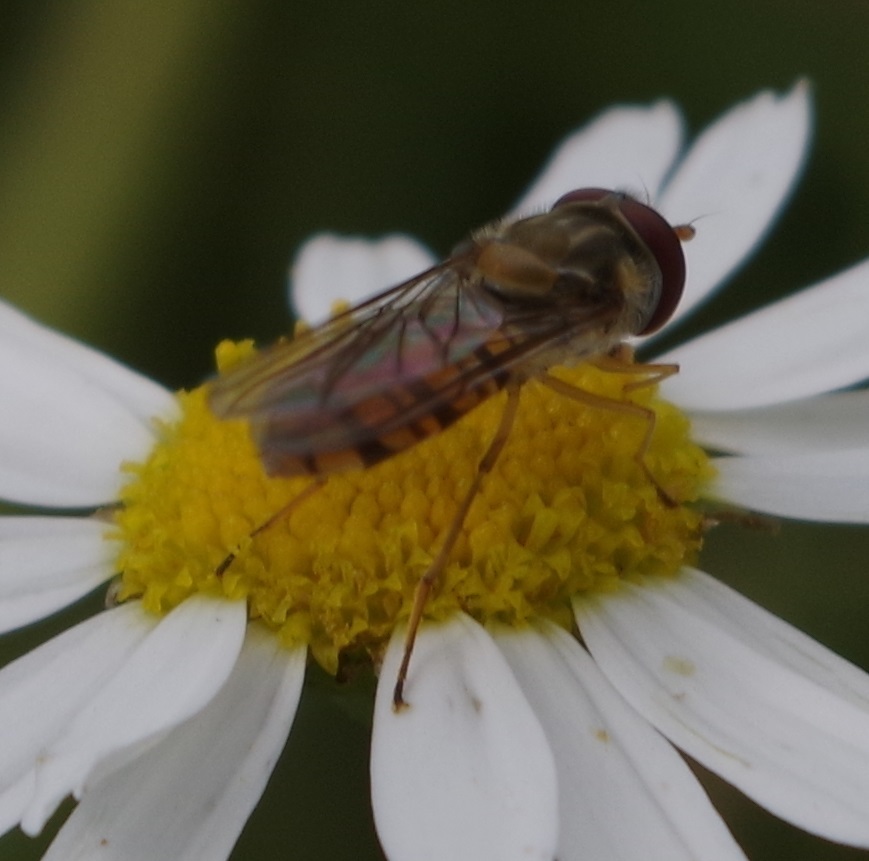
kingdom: Animalia
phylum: Arthropoda
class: Insecta
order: Diptera
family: Syrphidae
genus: Episyrphus
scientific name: Episyrphus balteatus
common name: Marmalade hoverfly
